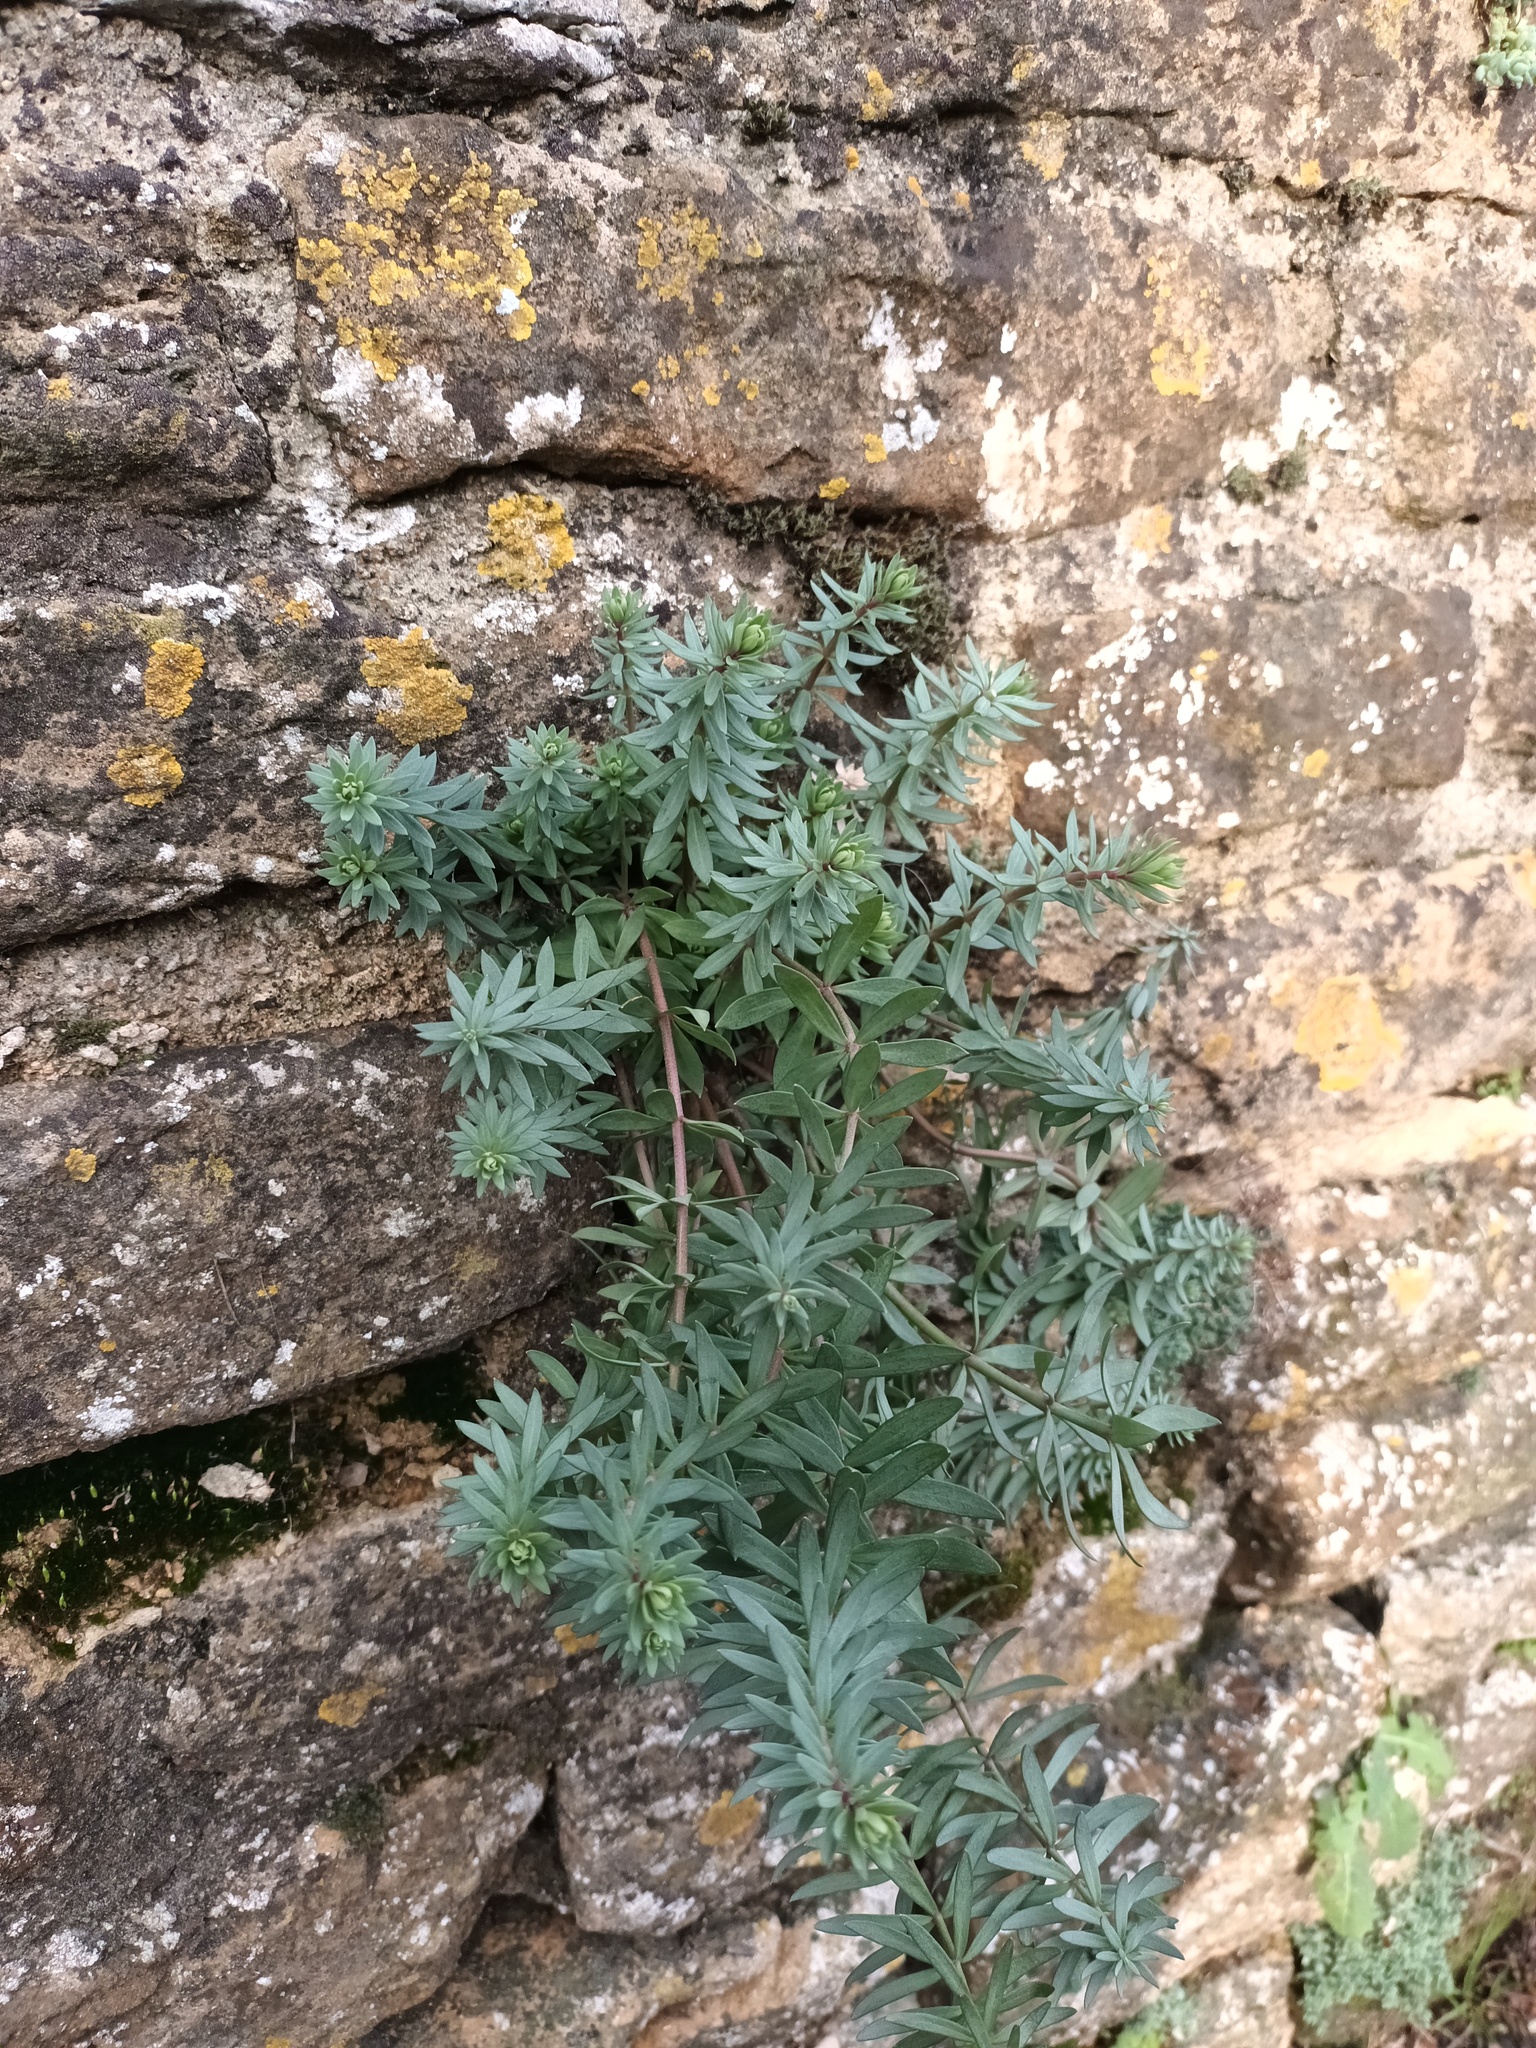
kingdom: Plantae
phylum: Tracheophyta
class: Magnoliopsida
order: Lamiales
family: Plantaginaceae
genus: Linaria
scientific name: Linaria purpurea
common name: Purple toadflax
